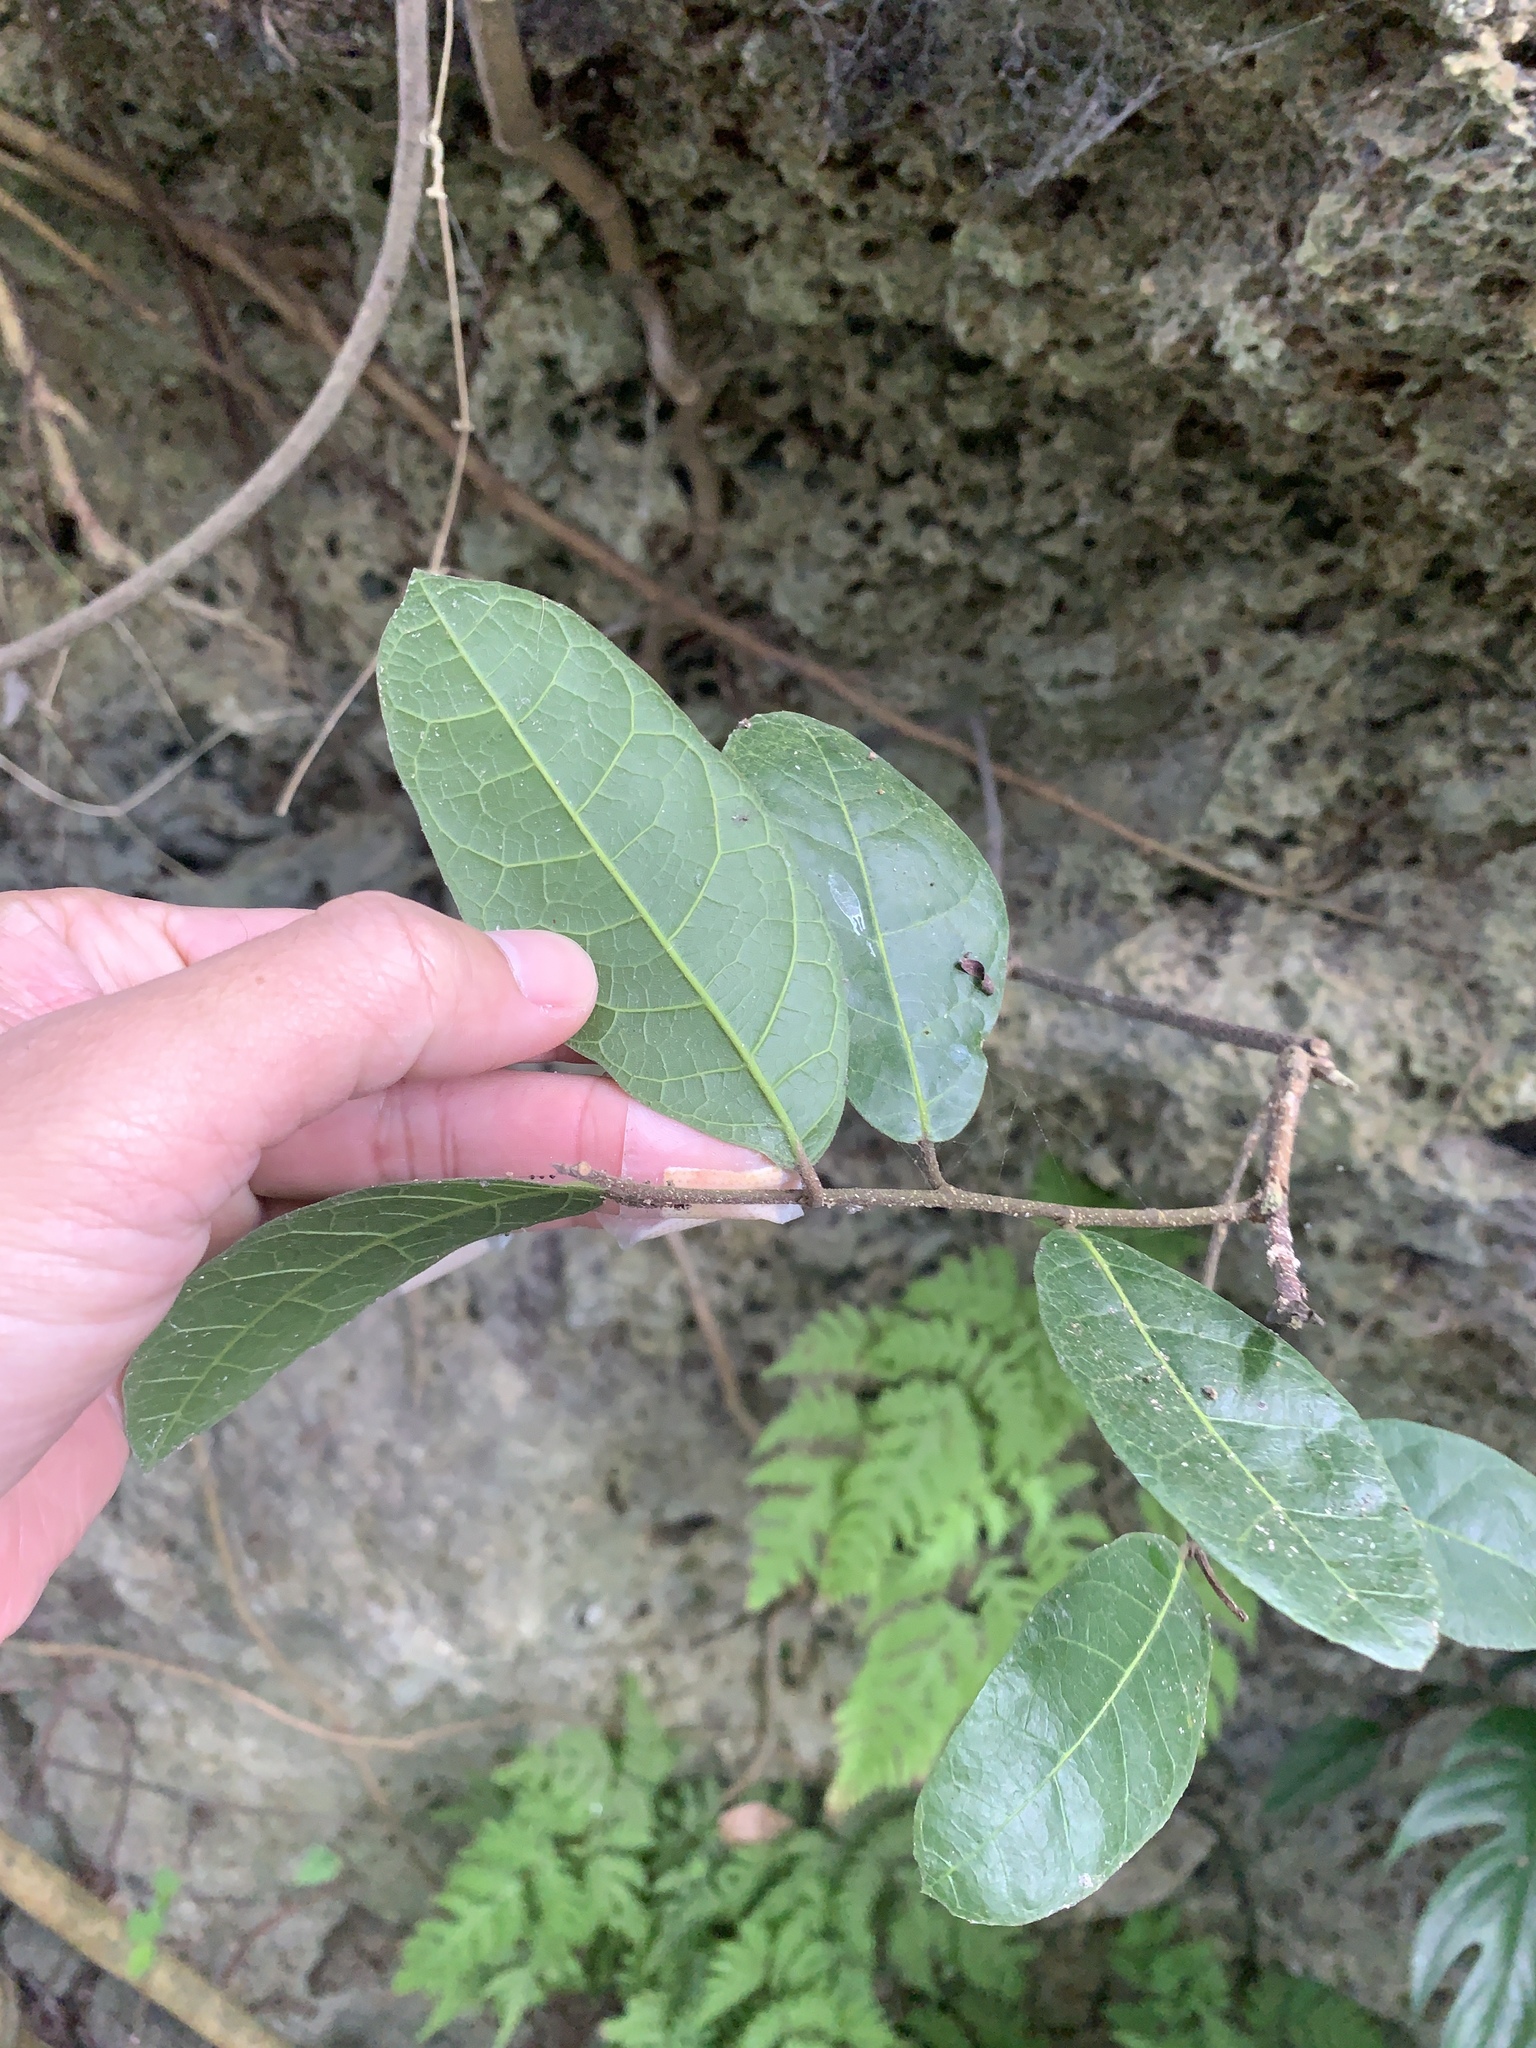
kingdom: Plantae
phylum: Tracheophyta
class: Magnoliopsida
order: Rosales
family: Moraceae
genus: Malaisia
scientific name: Malaisia scandens
